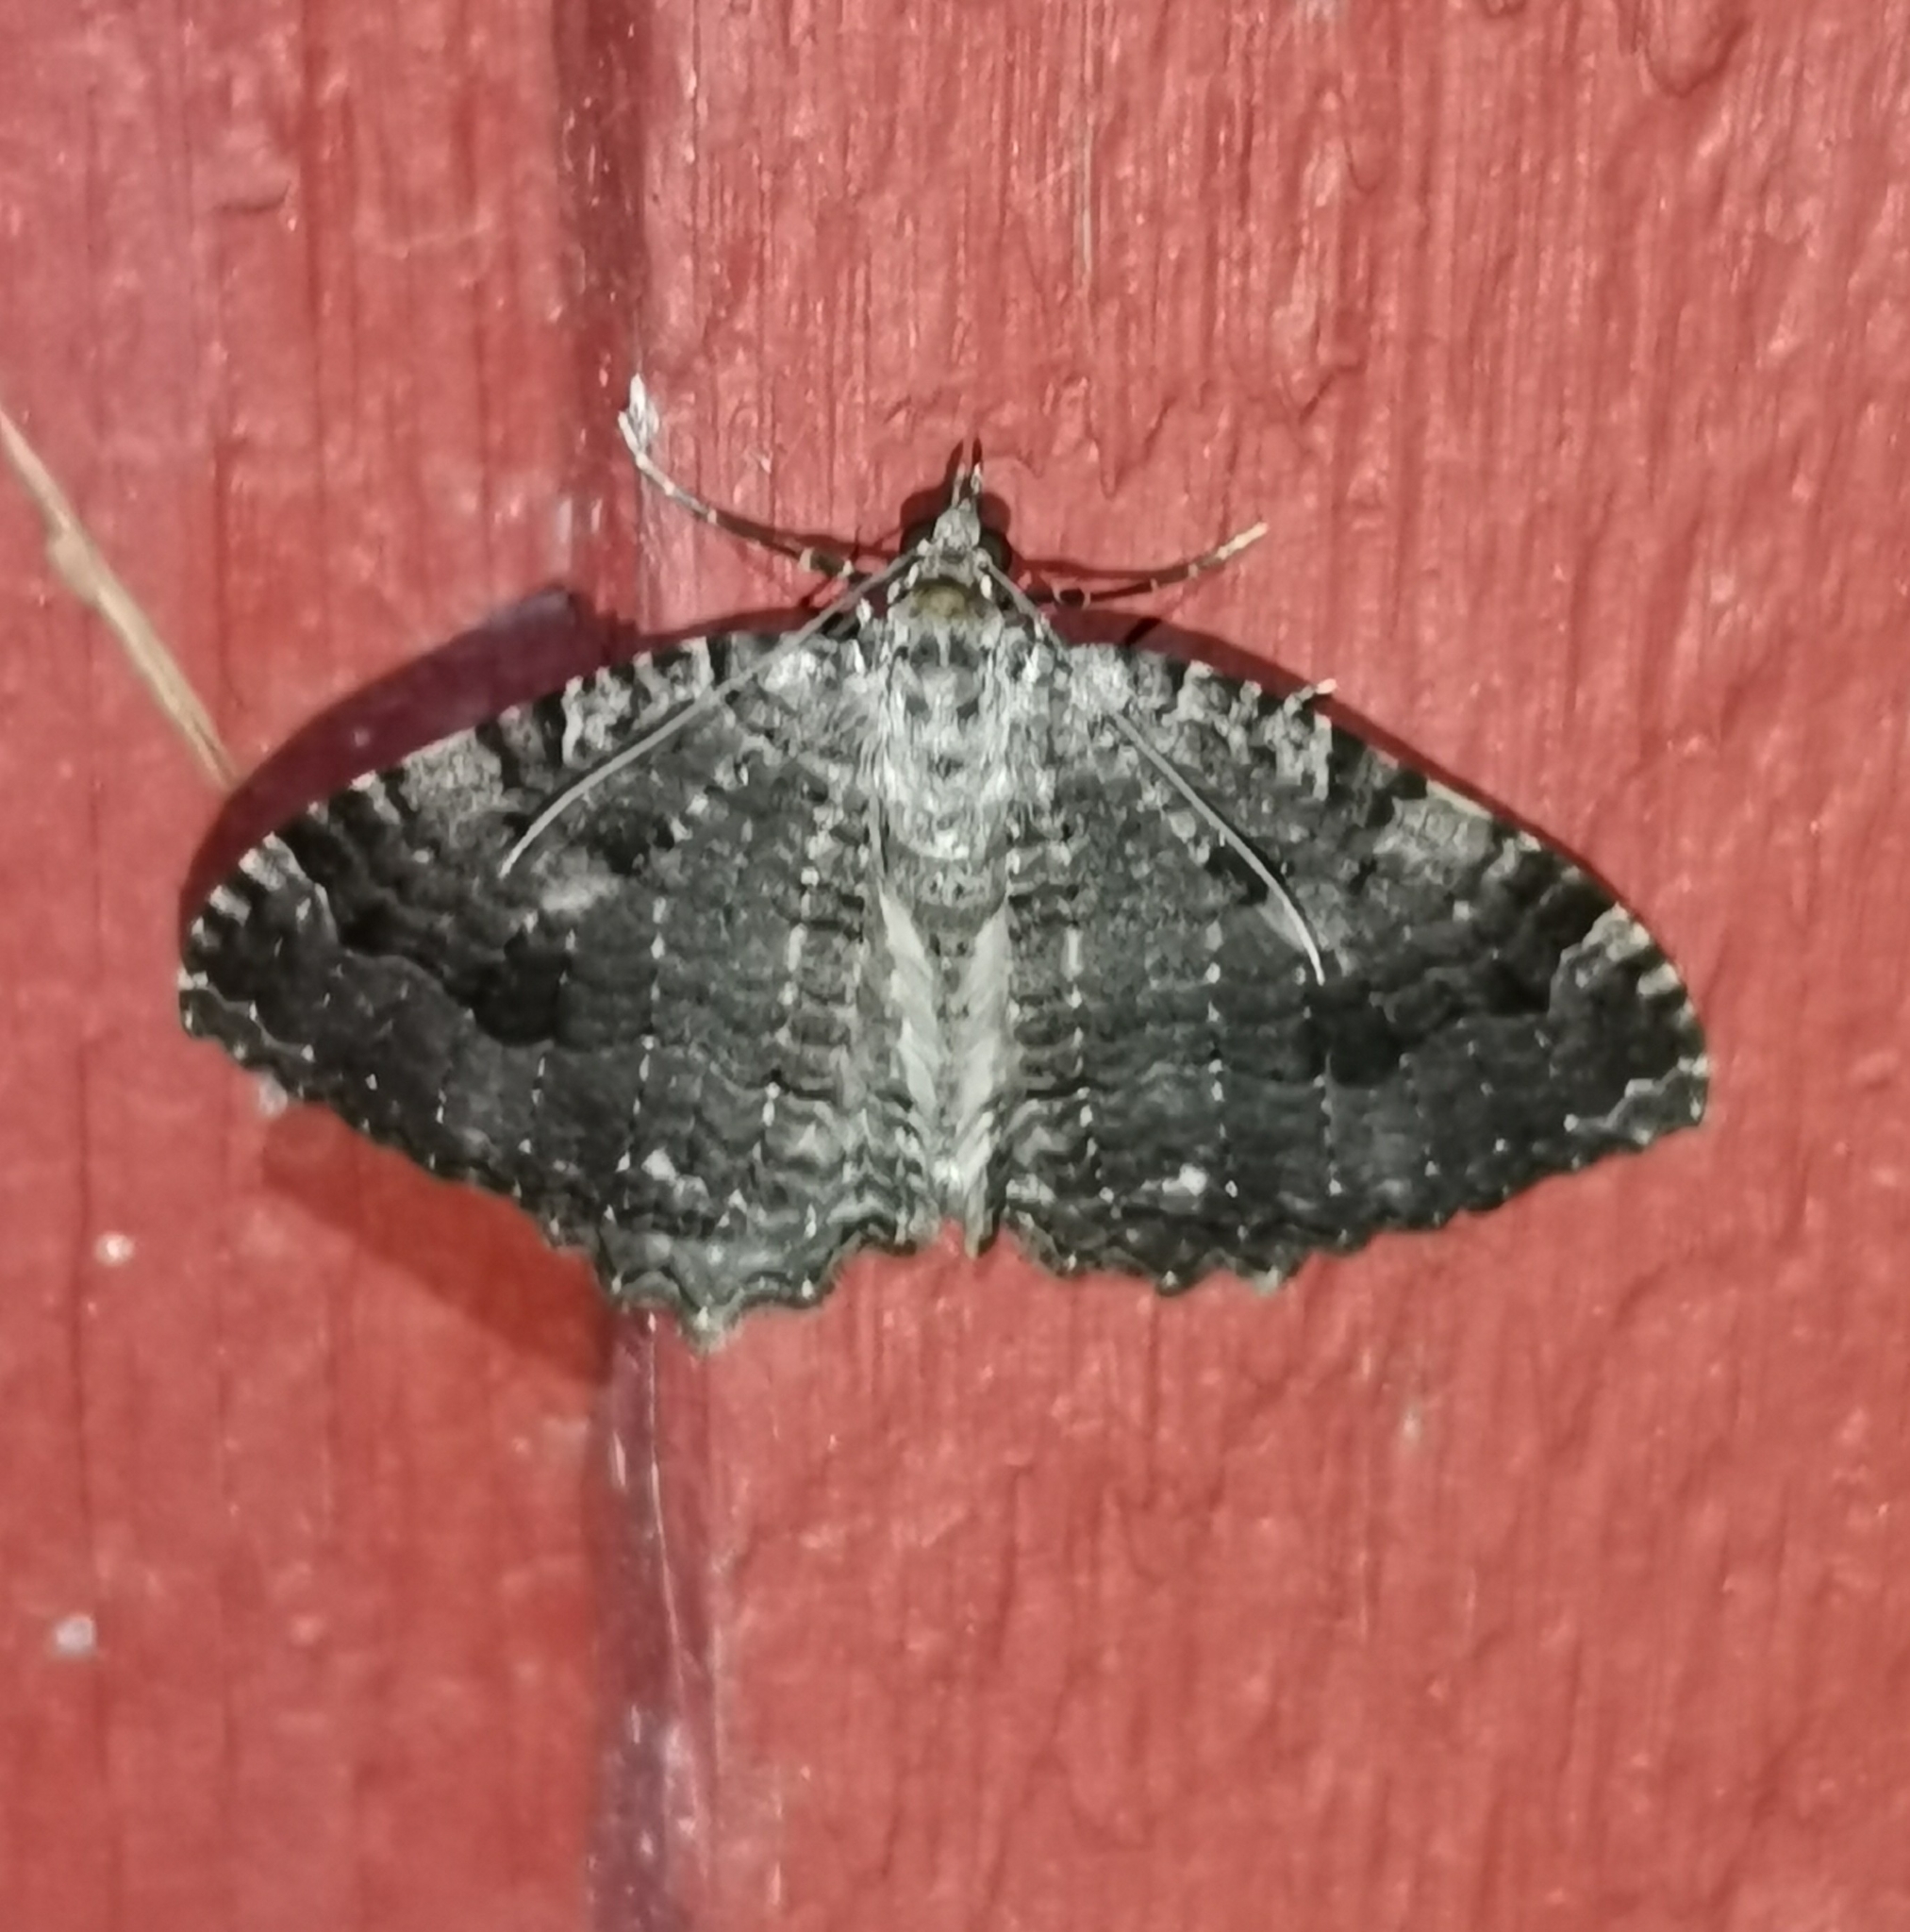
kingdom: Animalia
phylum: Arthropoda
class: Insecta
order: Lepidoptera
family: Geometridae
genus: Triphosa
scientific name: Triphosa dubitata
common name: Tissue
